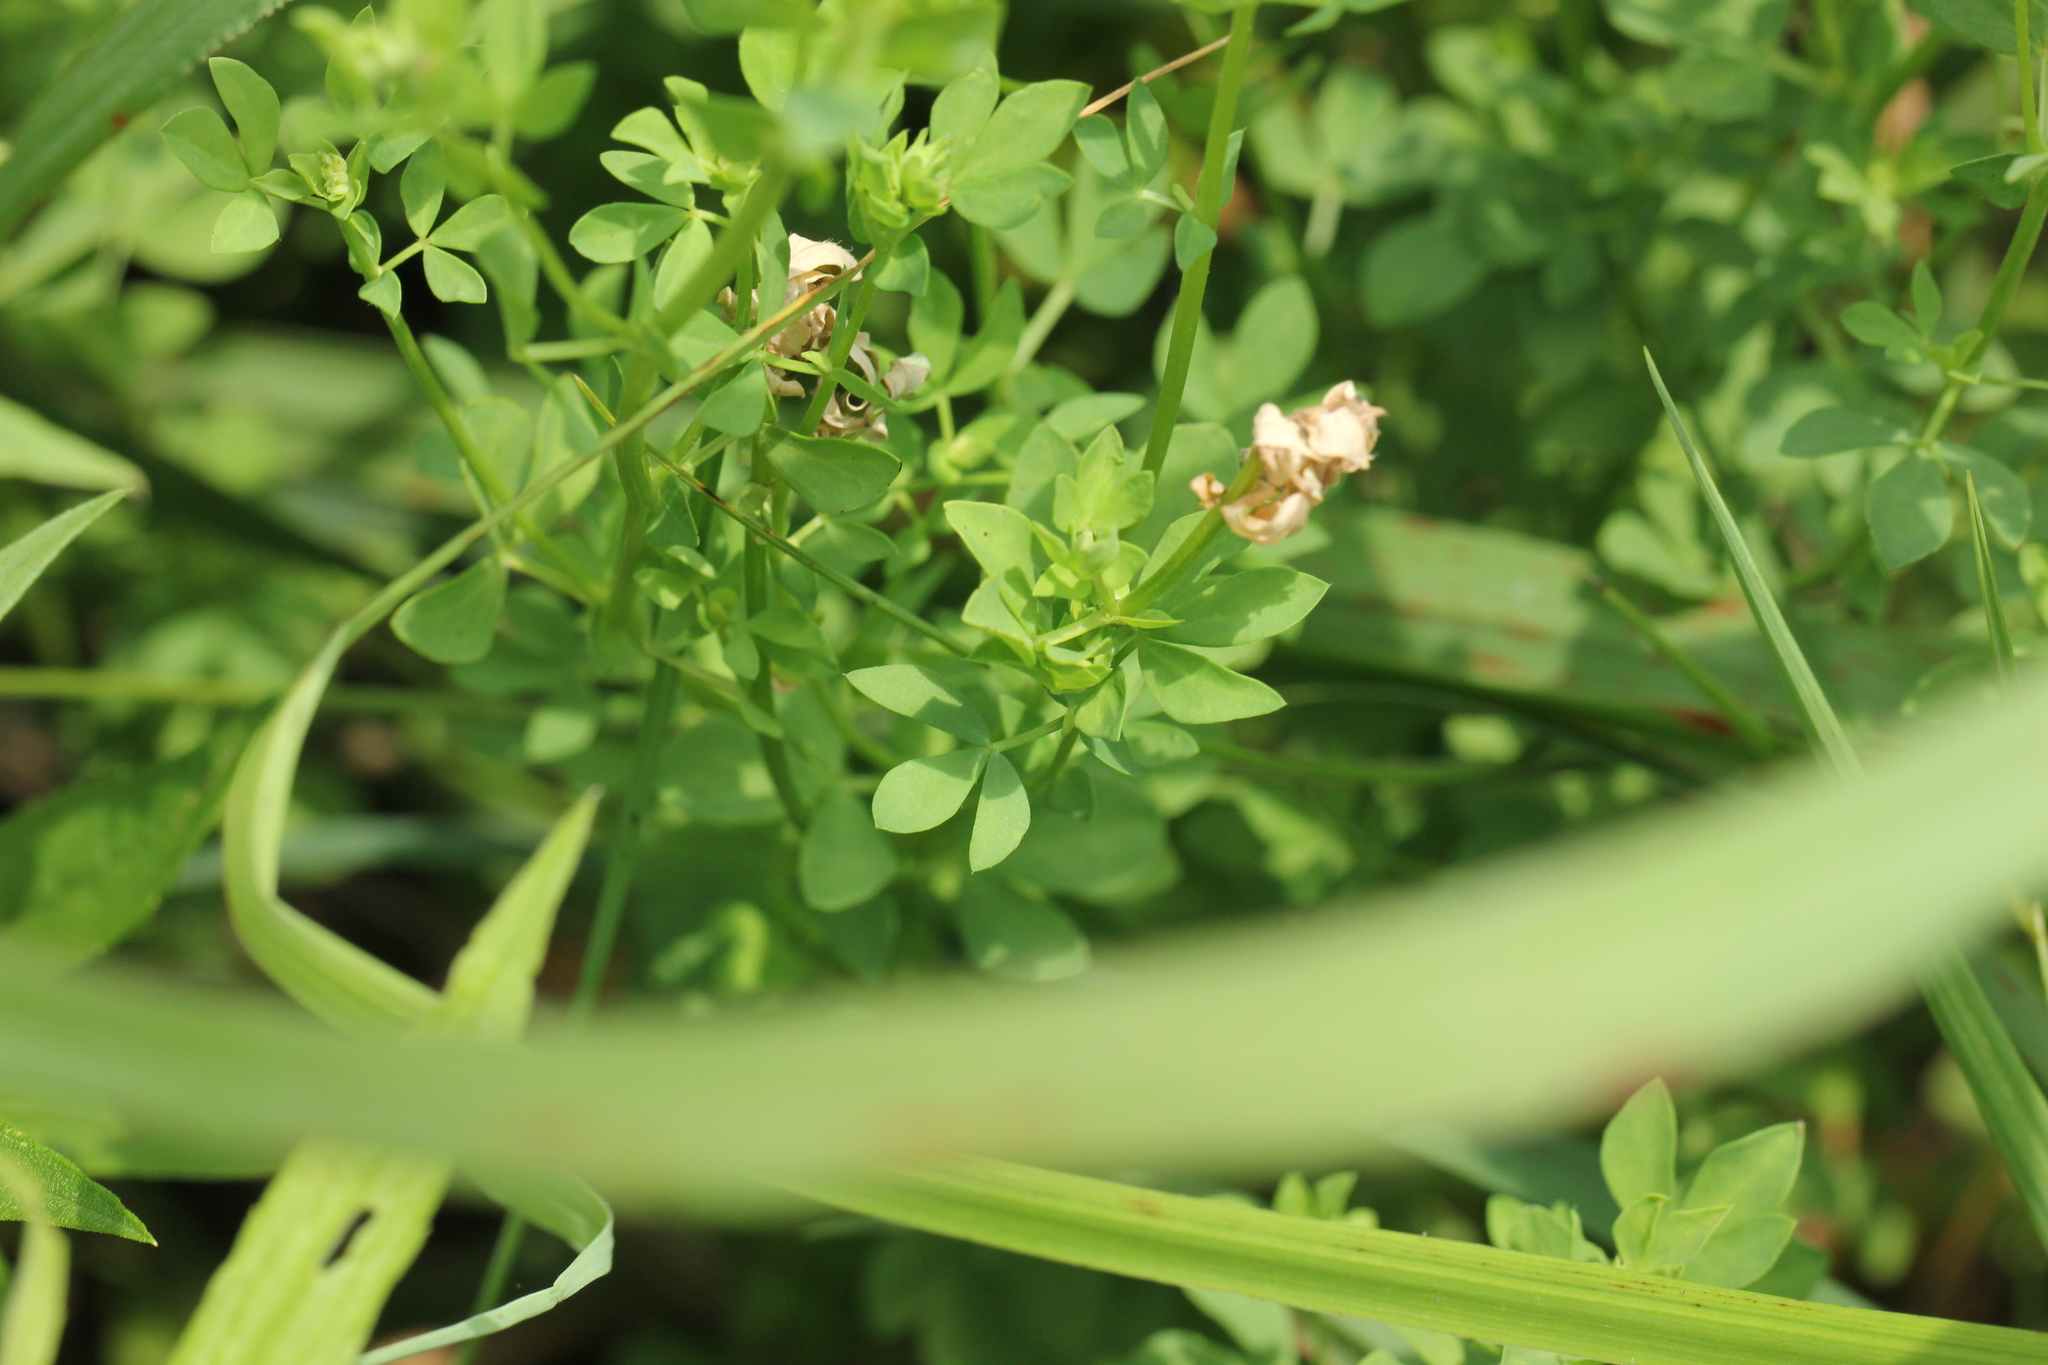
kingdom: Plantae
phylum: Tracheophyta
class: Magnoliopsida
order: Fabales
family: Fabaceae
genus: Lotus
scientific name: Lotus corniculatus
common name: Common bird's-foot-trefoil
